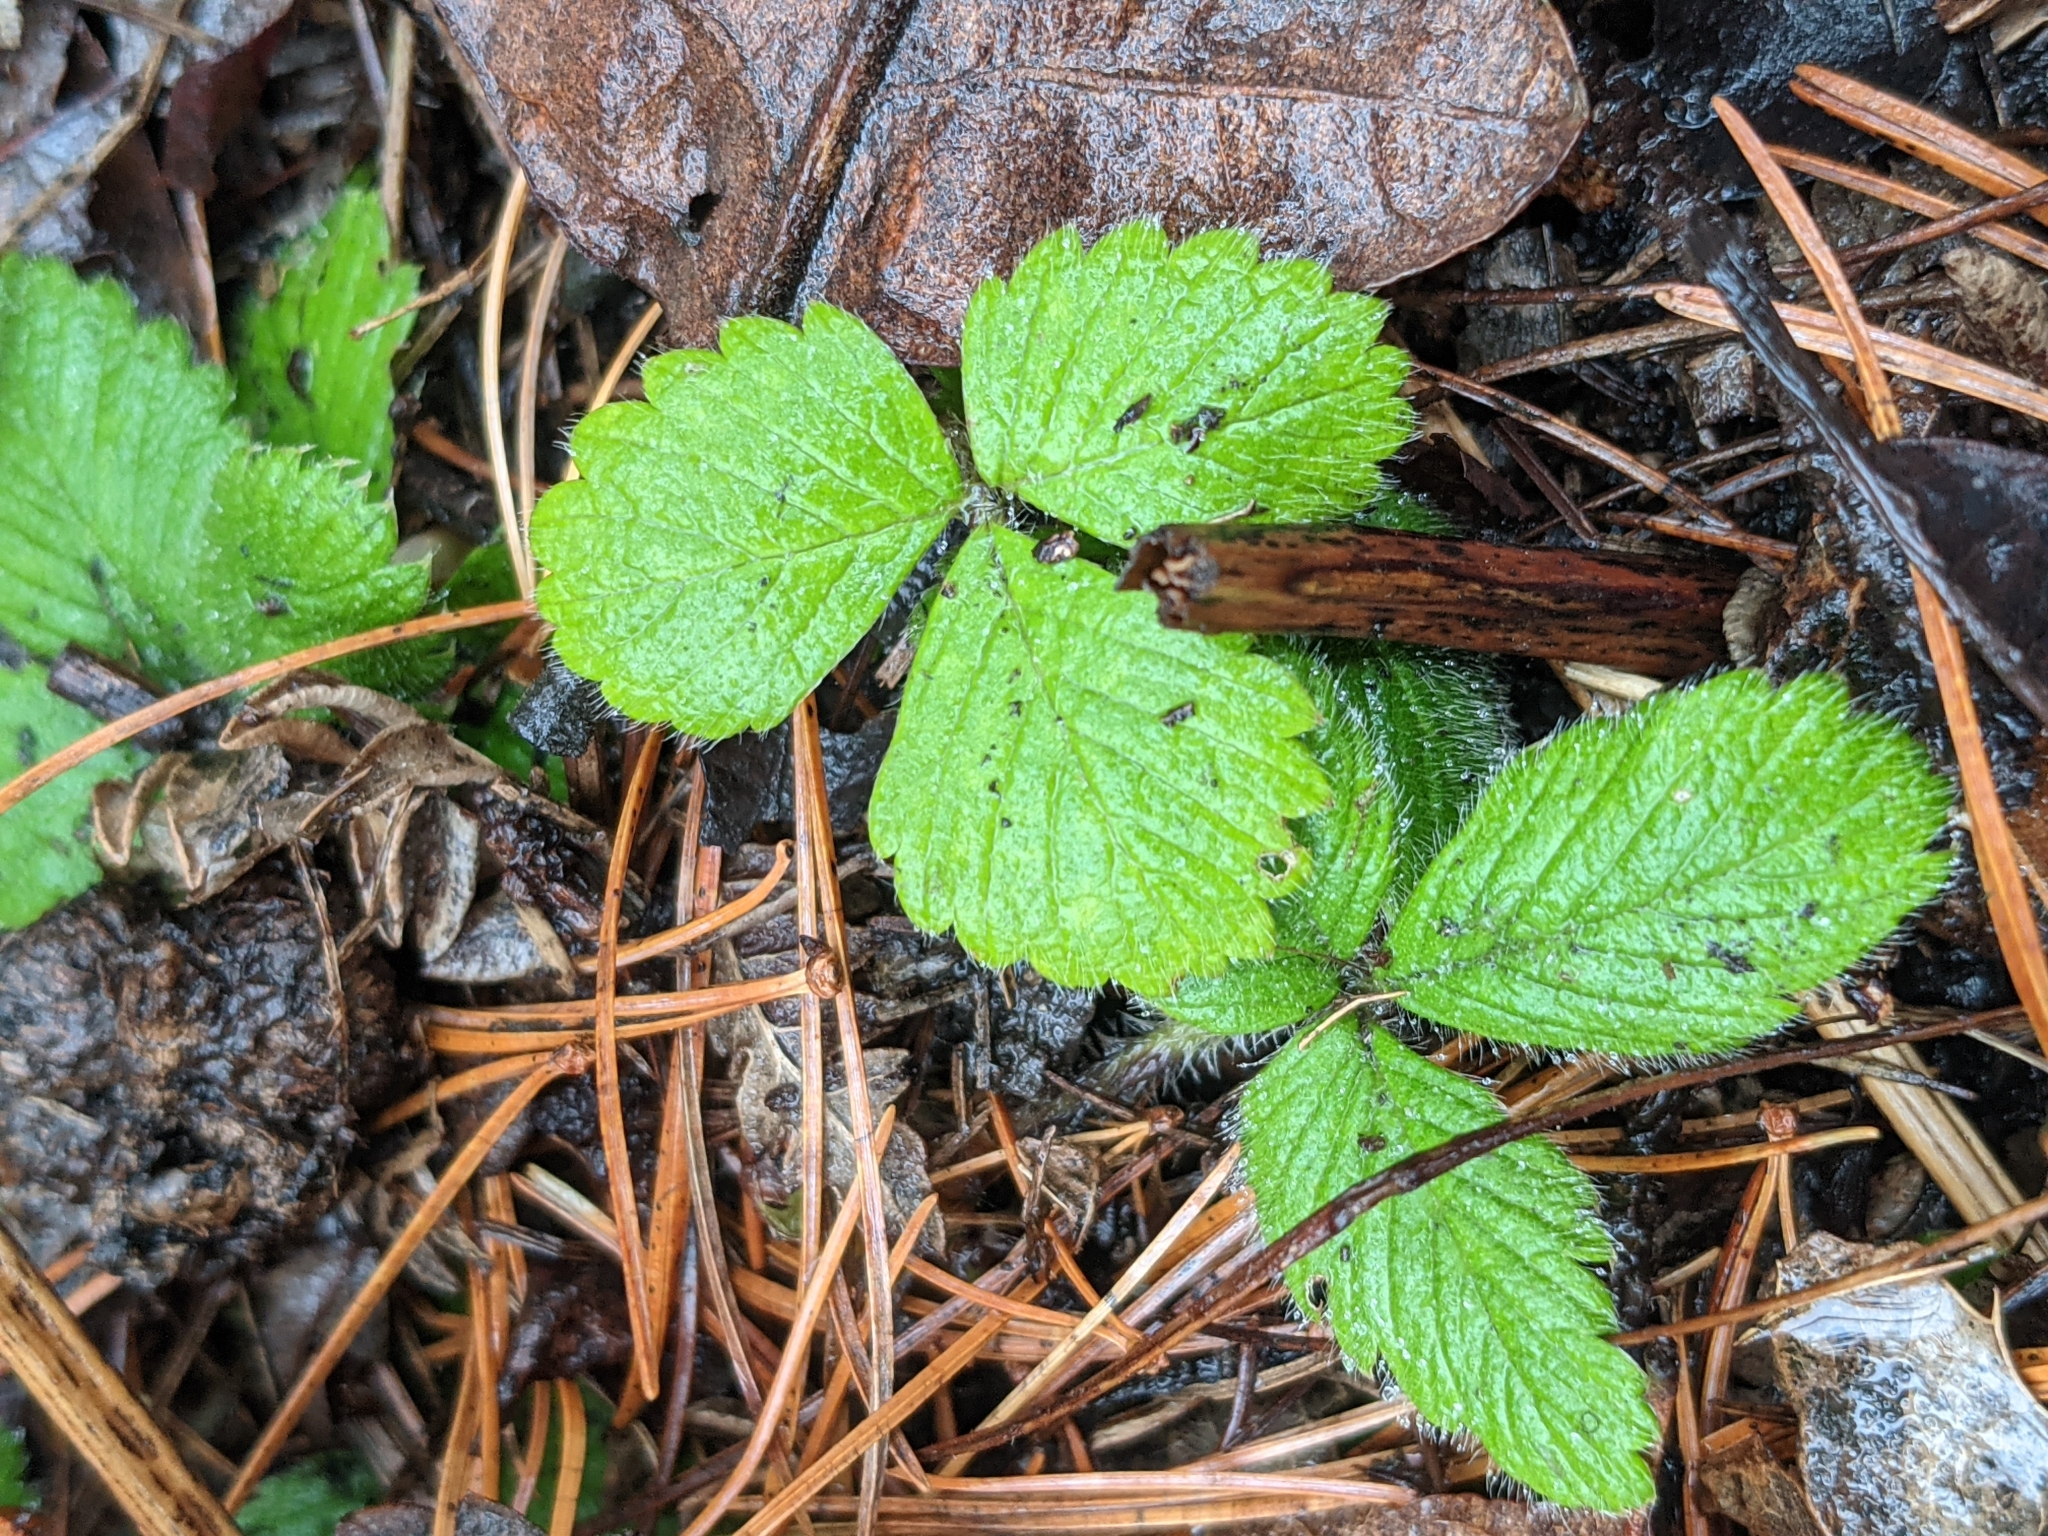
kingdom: Plantae
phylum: Tracheophyta
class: Magnoliopsida
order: Rosales
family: Rosaceae
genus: Fragaria
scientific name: Fragaria vesca
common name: Wild strawberry
